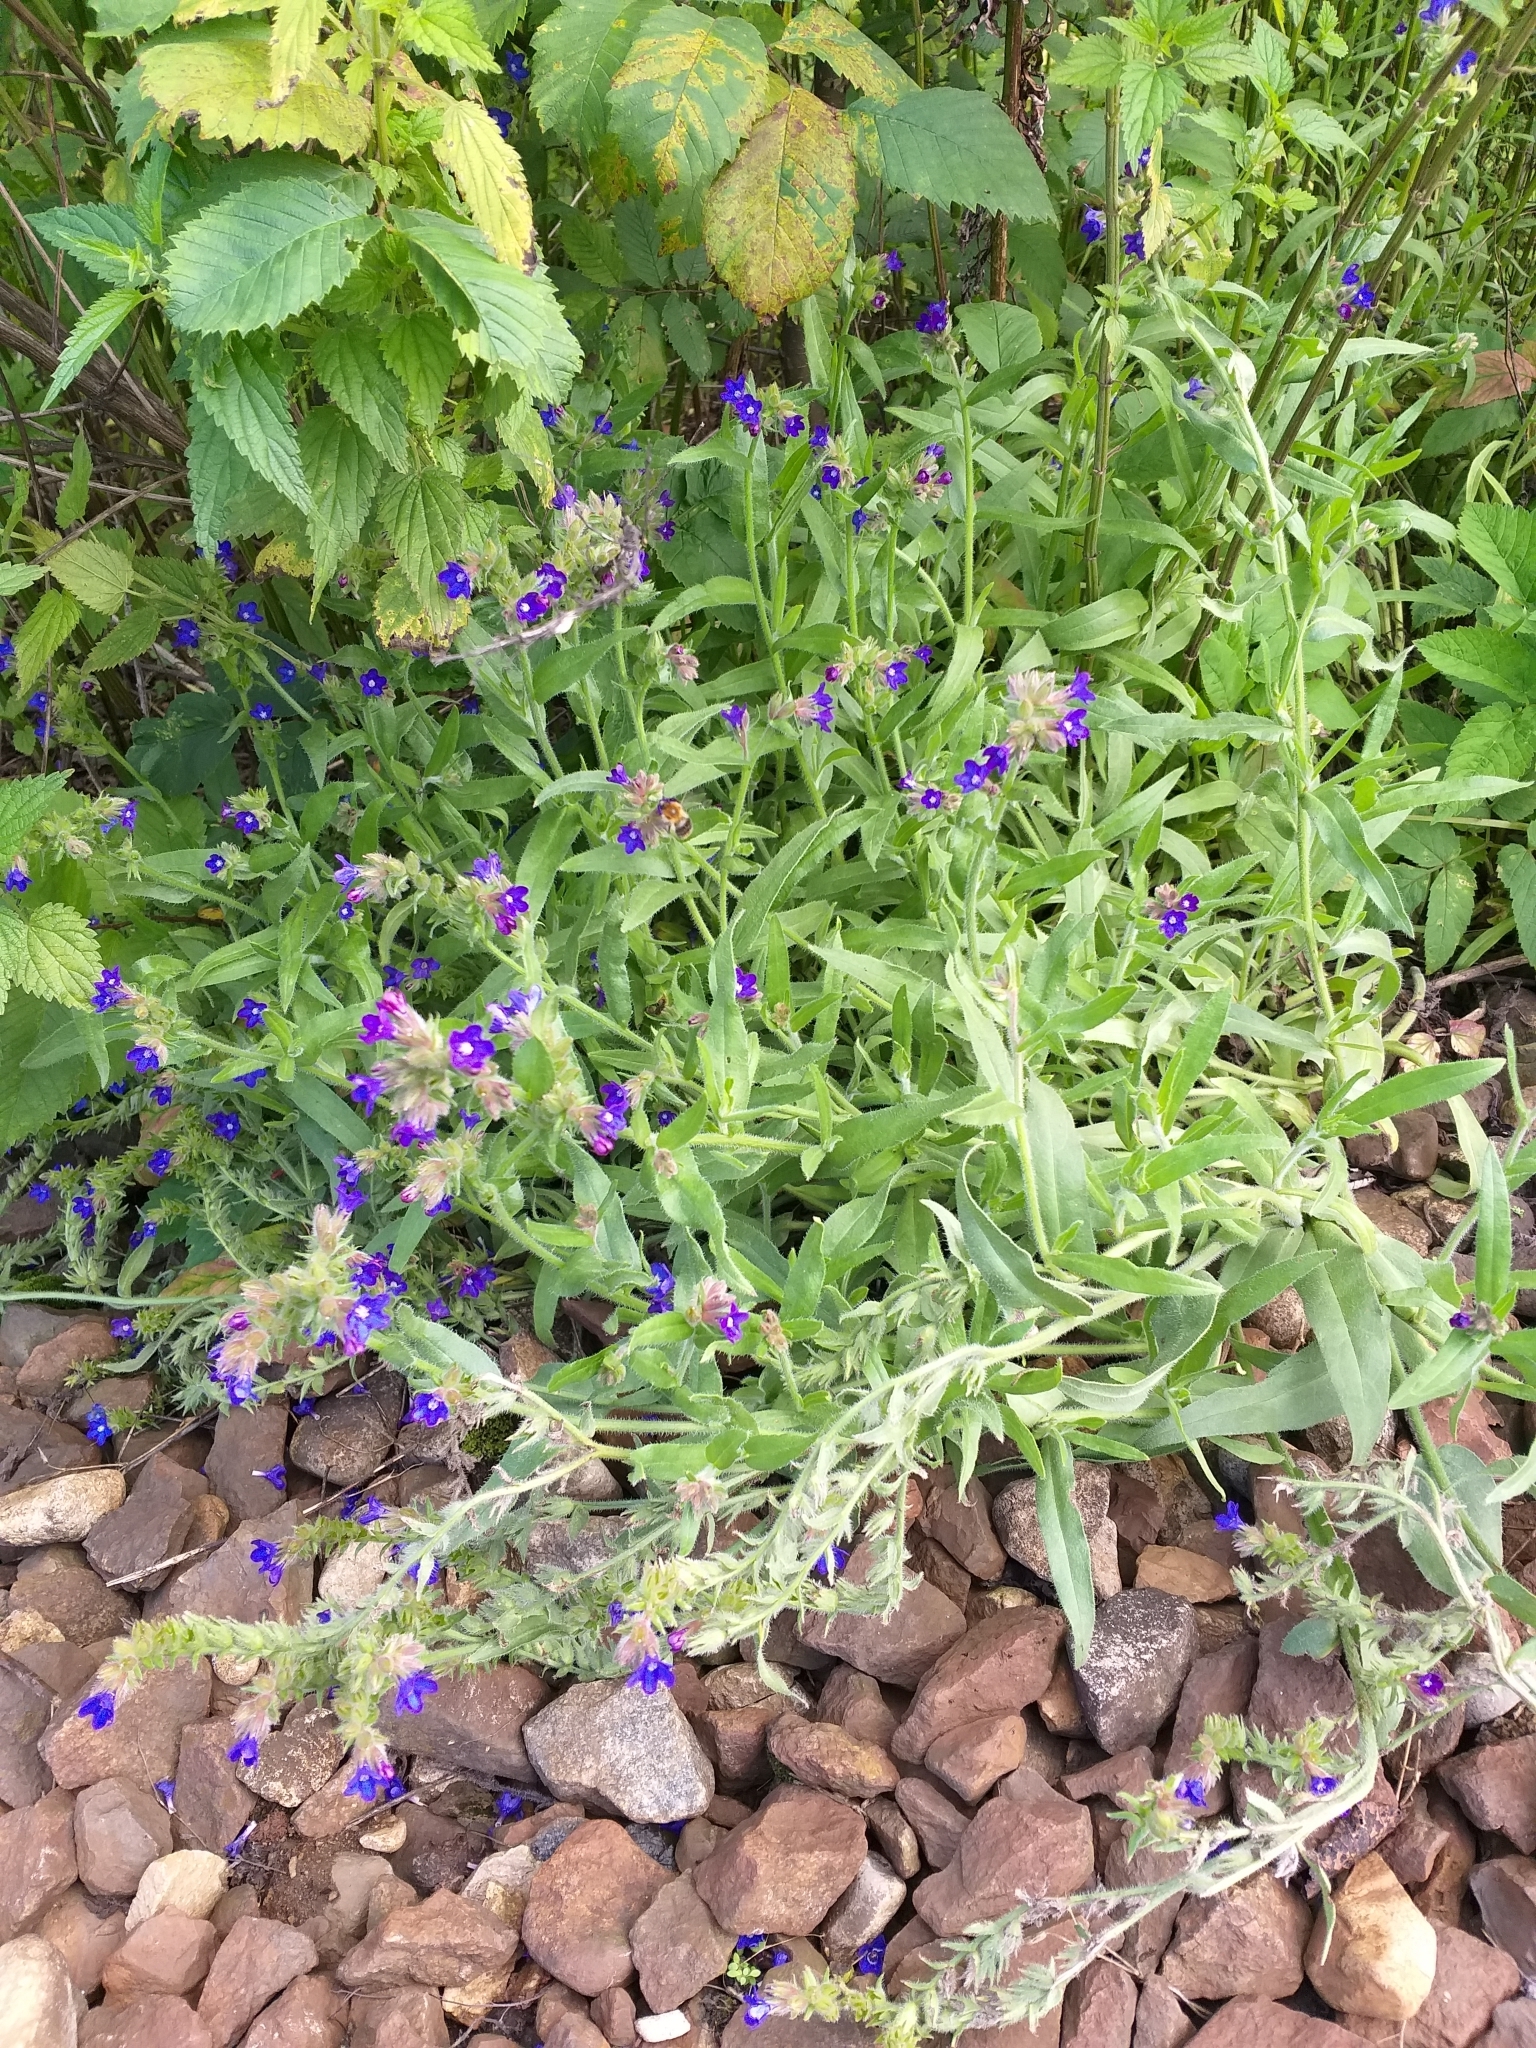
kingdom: Plantae
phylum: Tracheophyta
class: Magnoliopsida
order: Boraginales
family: Boraginaceae
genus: Anchusa
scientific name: Anchusa officinalis
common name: Alkanet
